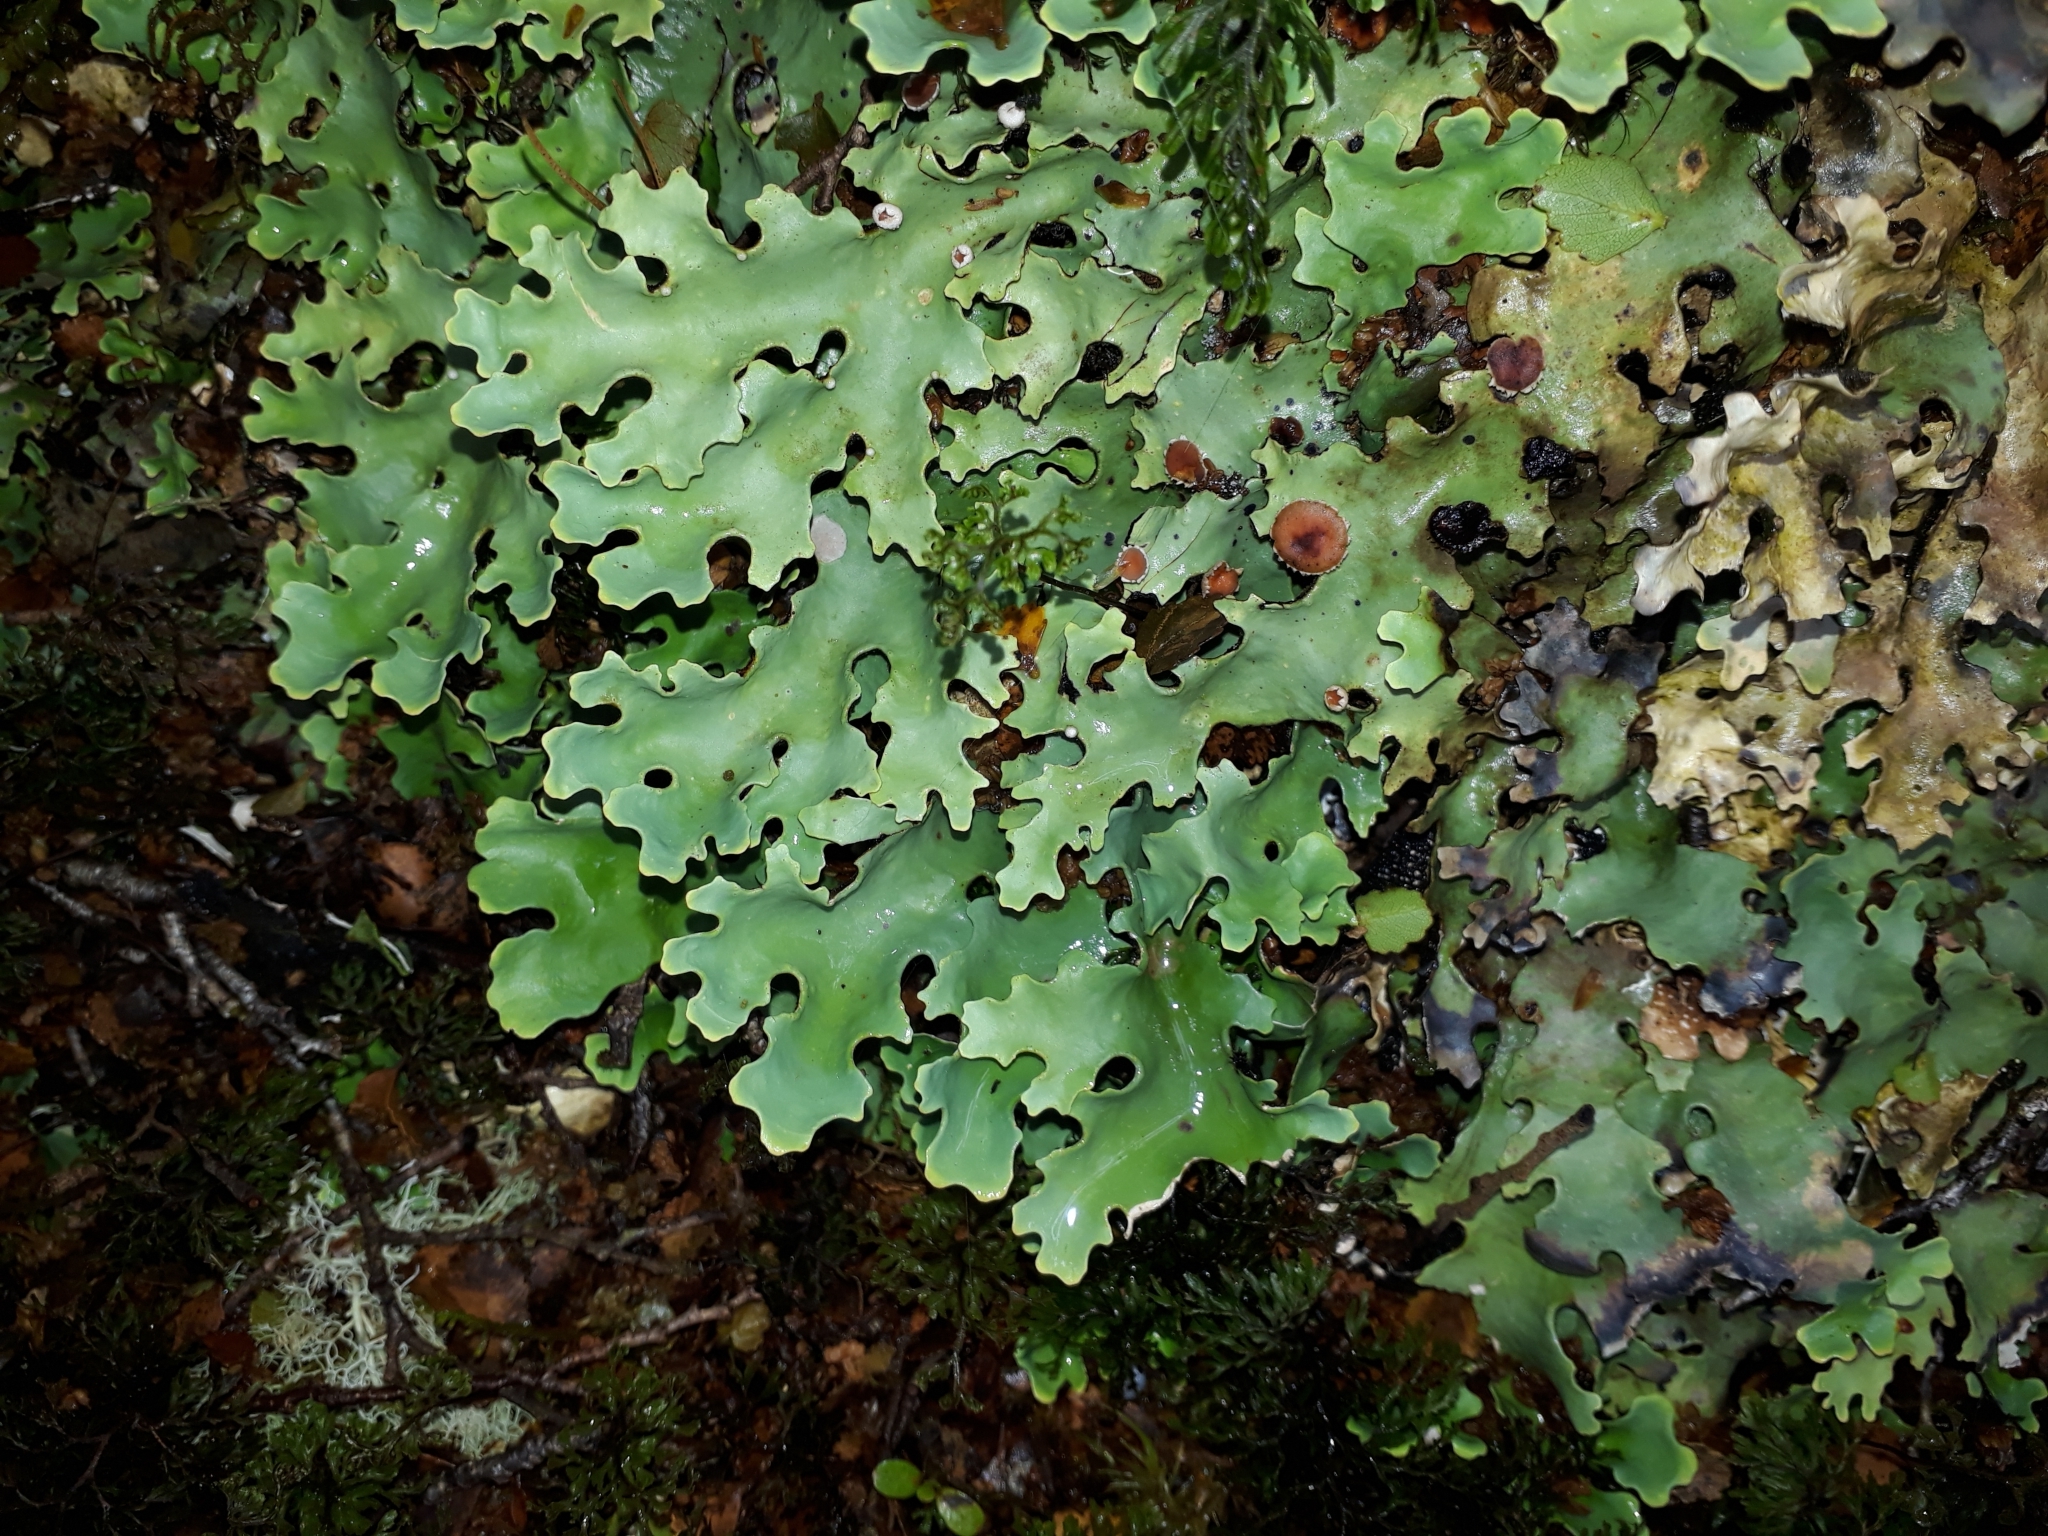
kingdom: Fungi
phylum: Ascomycota
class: Lecanoromycetes
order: Peltigerales
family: Lobariaceae
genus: Pseudocyphellaria
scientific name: Pseudocyphellaria homeophylla
